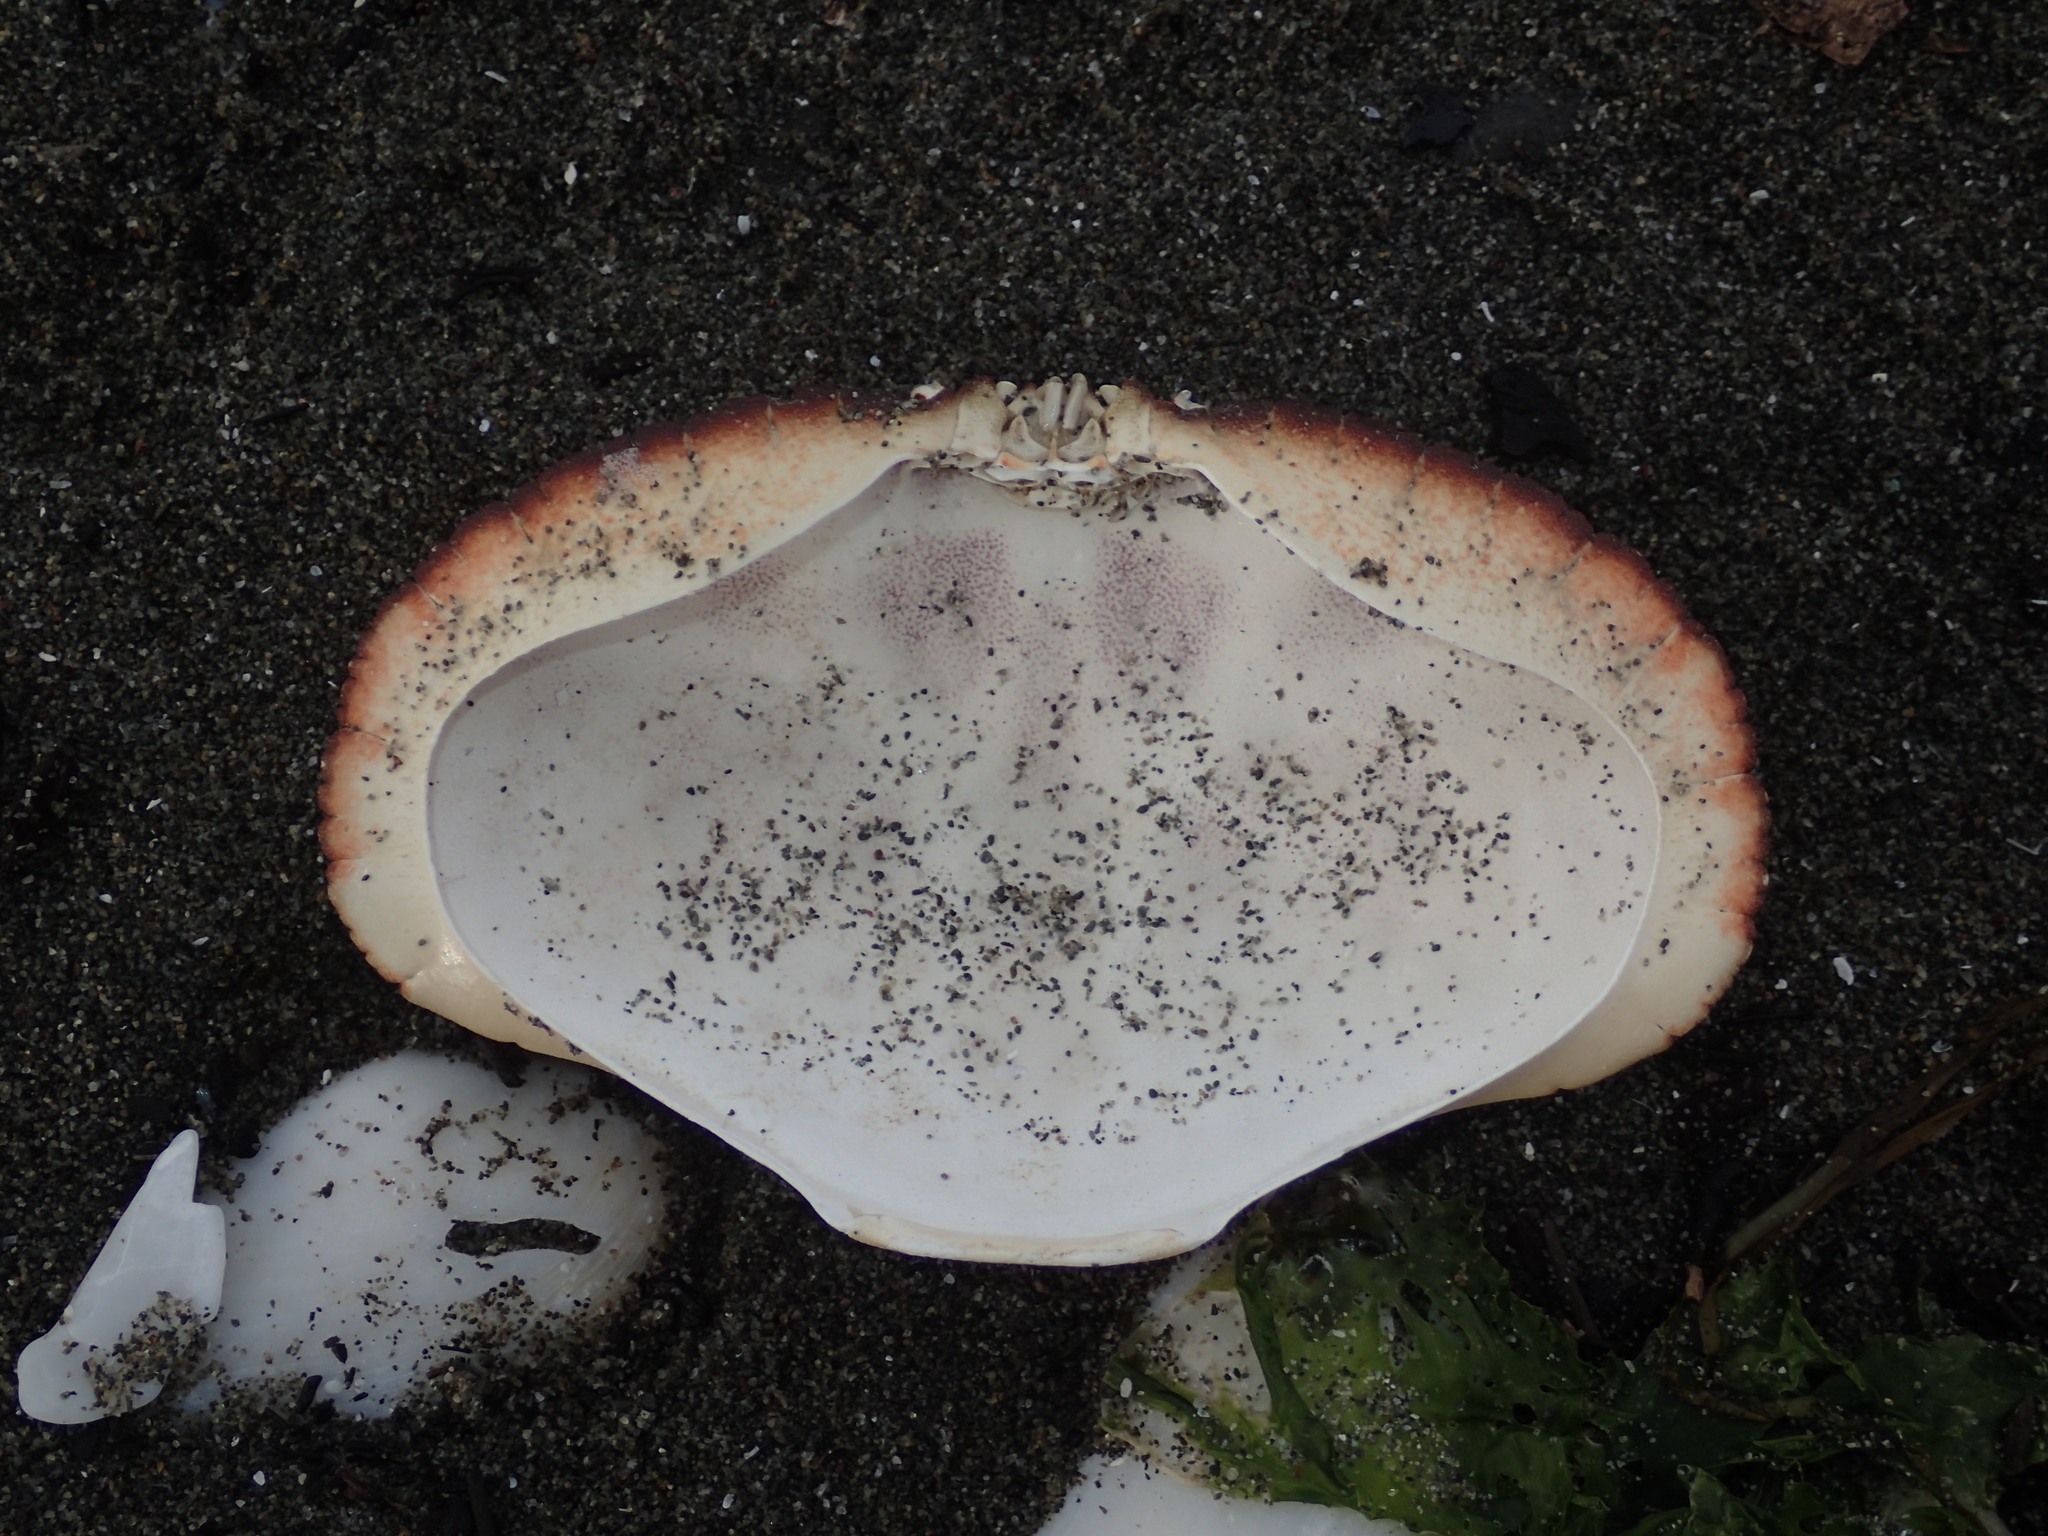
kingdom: Animalia
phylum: Arthropoda
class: Malacostraca
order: Decapoda
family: Cancridae
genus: Metacarcinus
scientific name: Metacarcinus novaezelandiae
